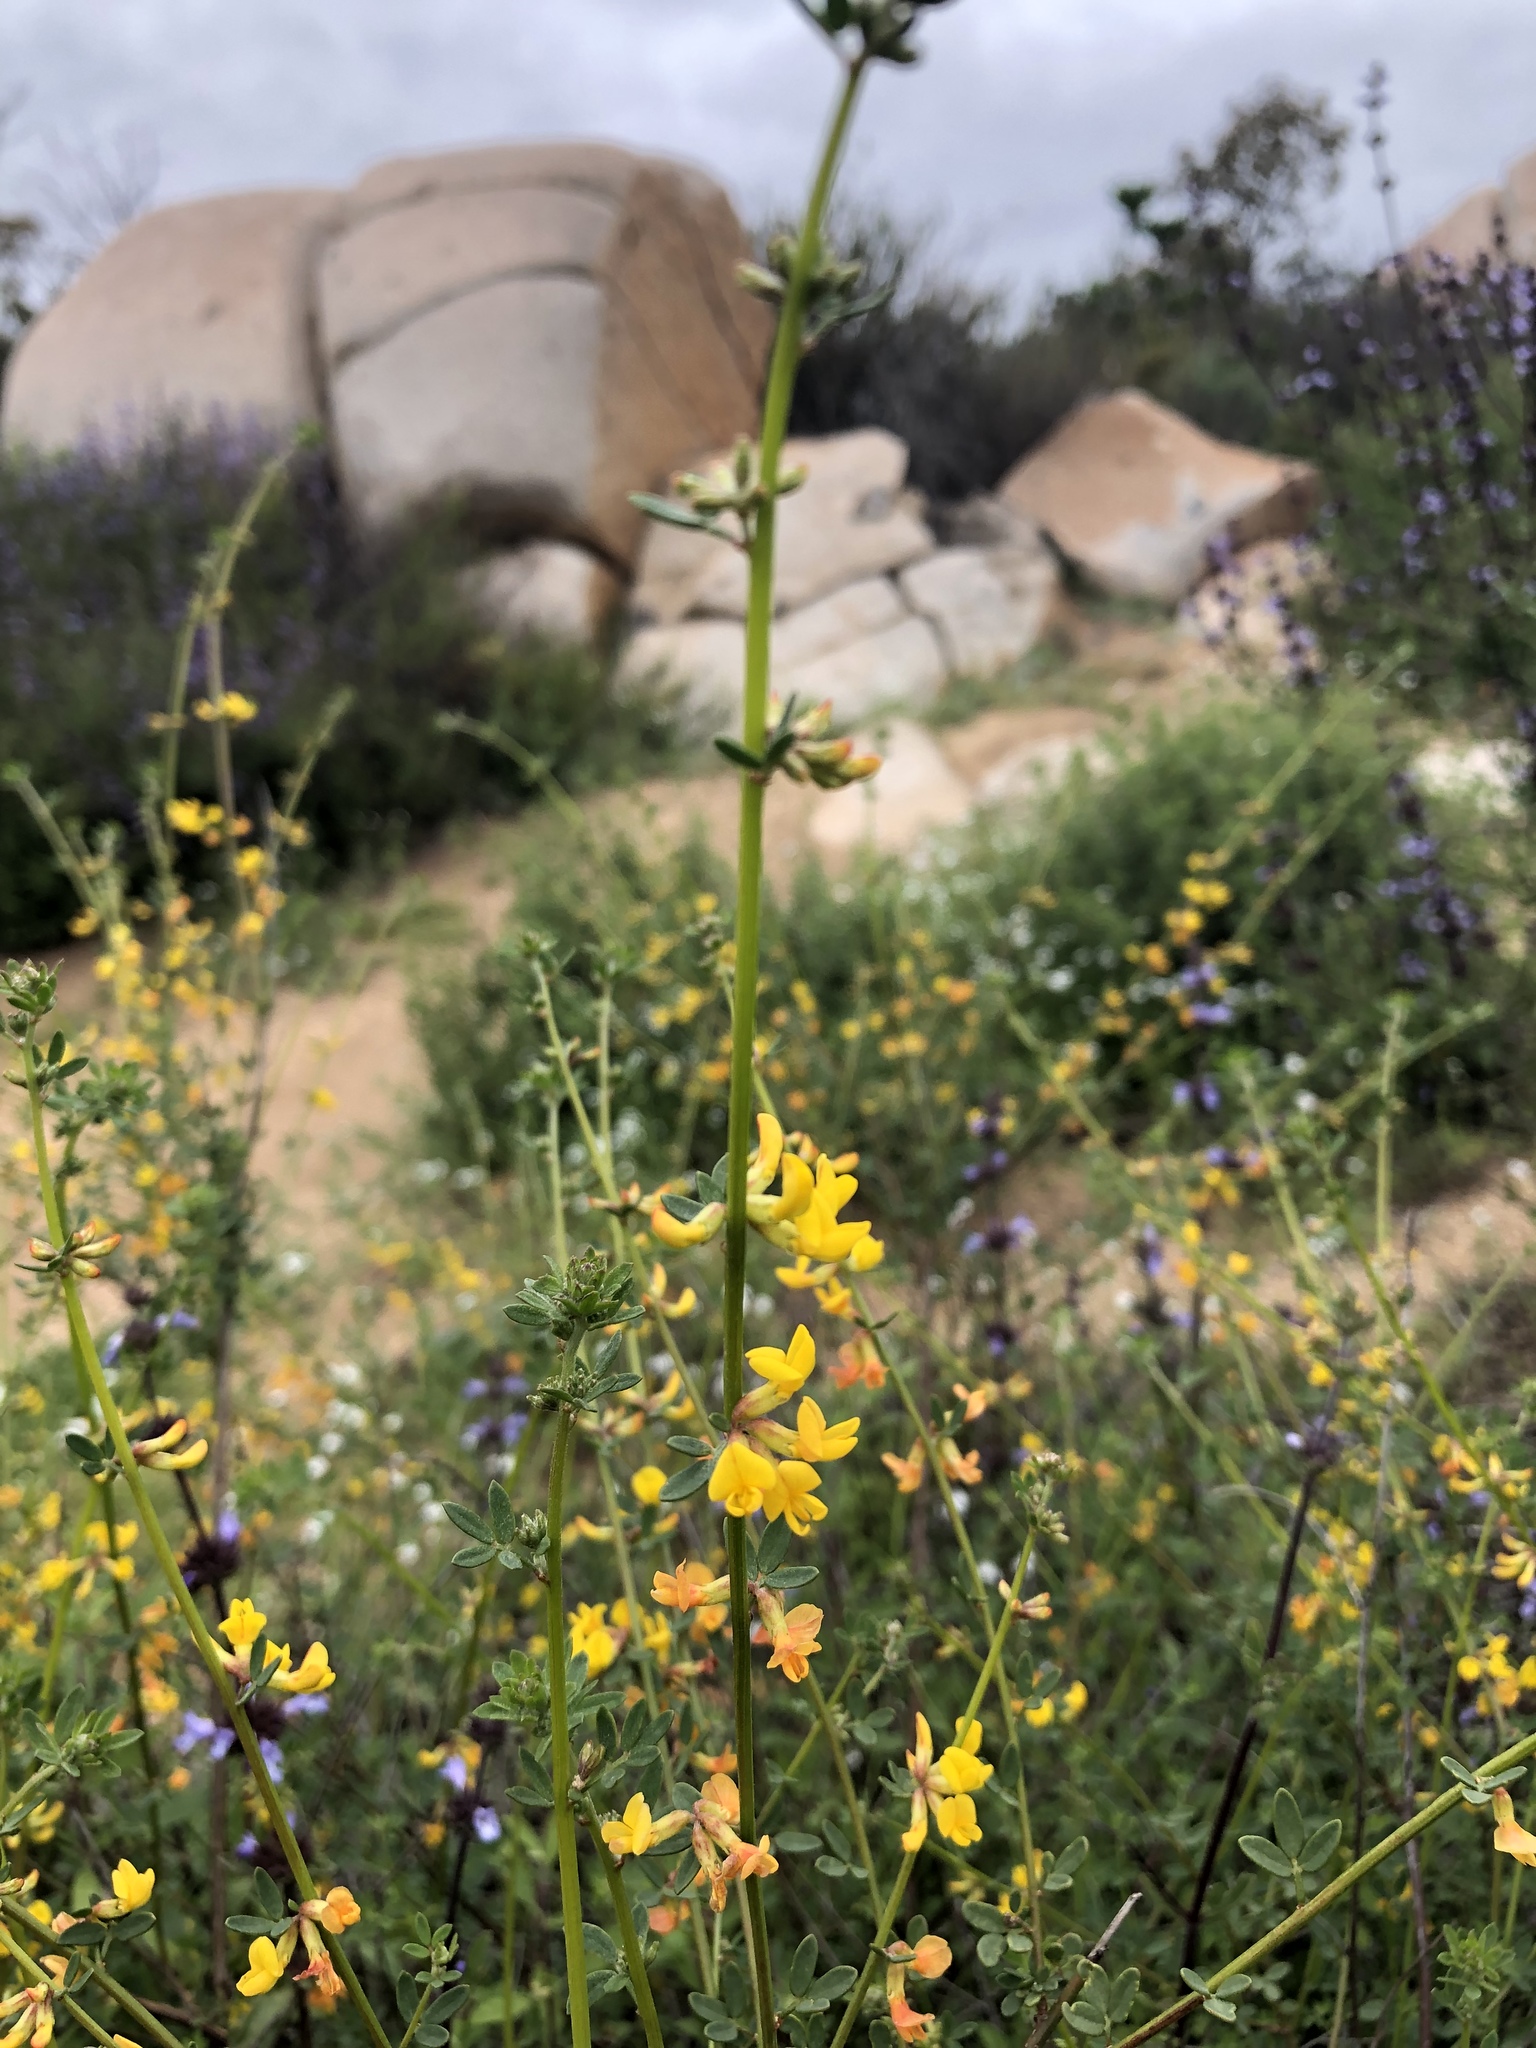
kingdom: Plantae
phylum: Tracheophyta
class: Magnoliopsida
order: Fabales
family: Fabaceae
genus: Acmispon
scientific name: Acmispon glaber
